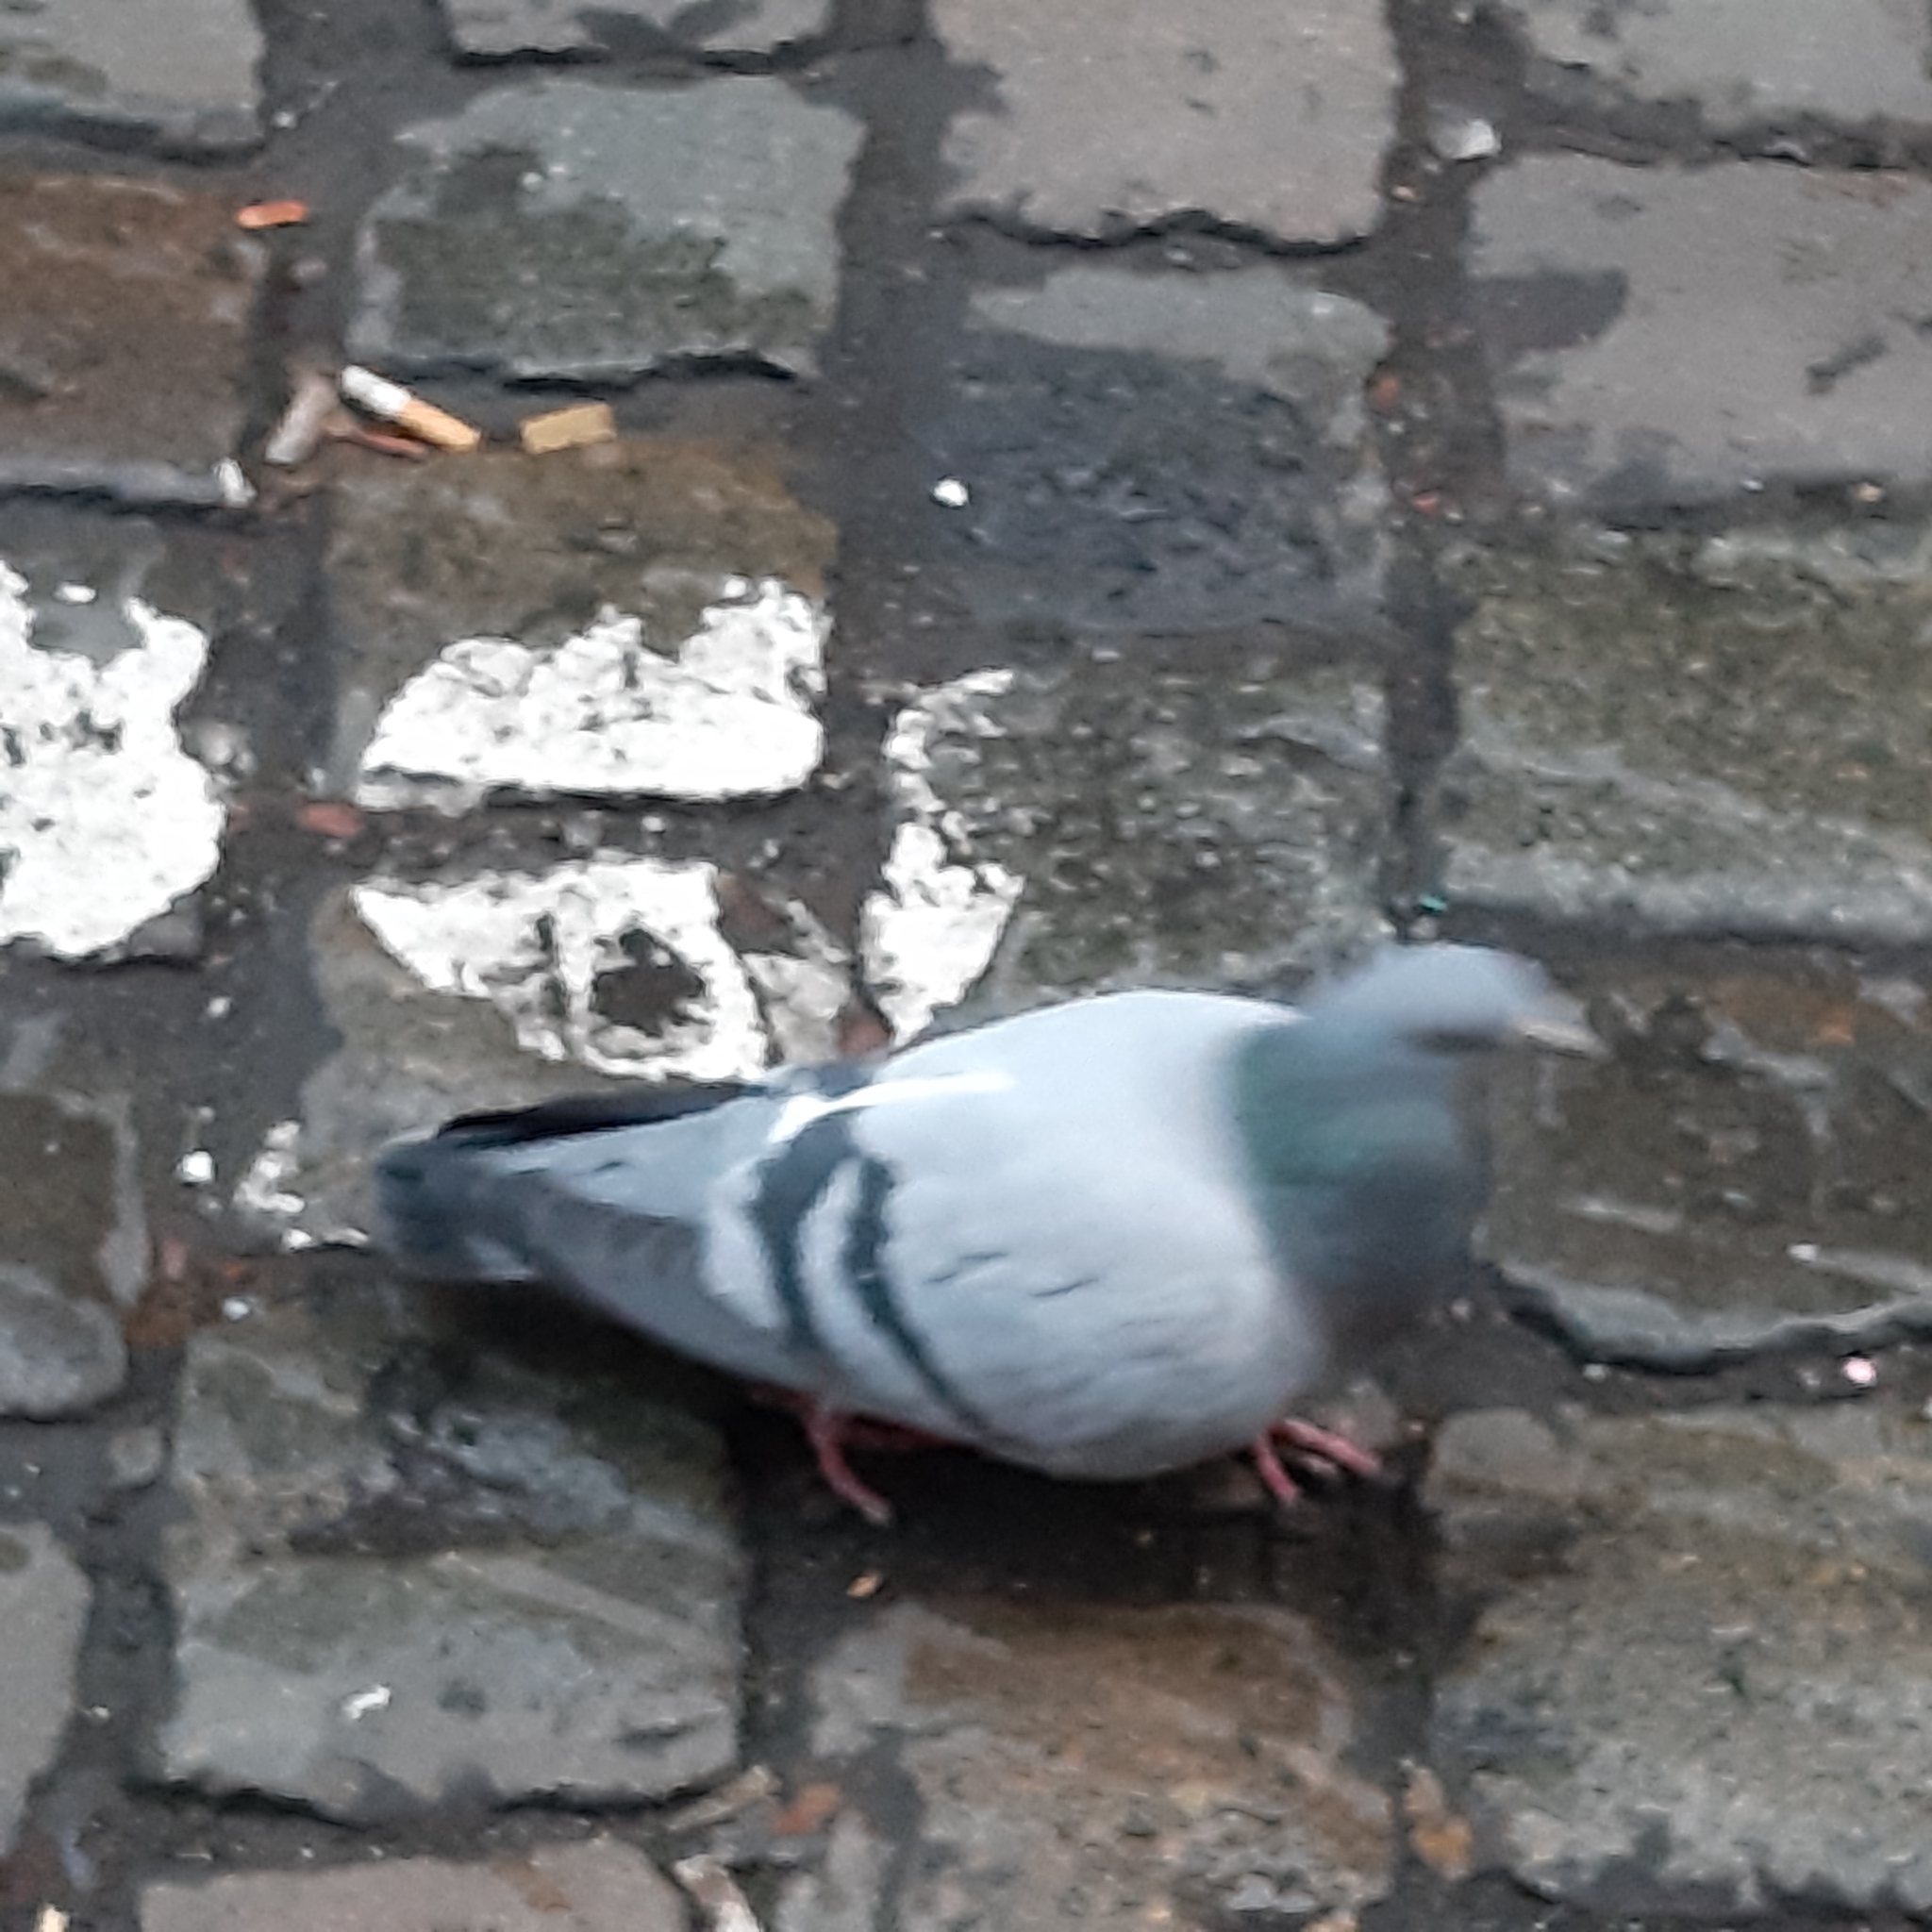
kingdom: Animalia
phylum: Chordata
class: Aves
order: Columbiformes
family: Columbidae
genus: Columba
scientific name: Columba livia
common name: Rock pigeon
